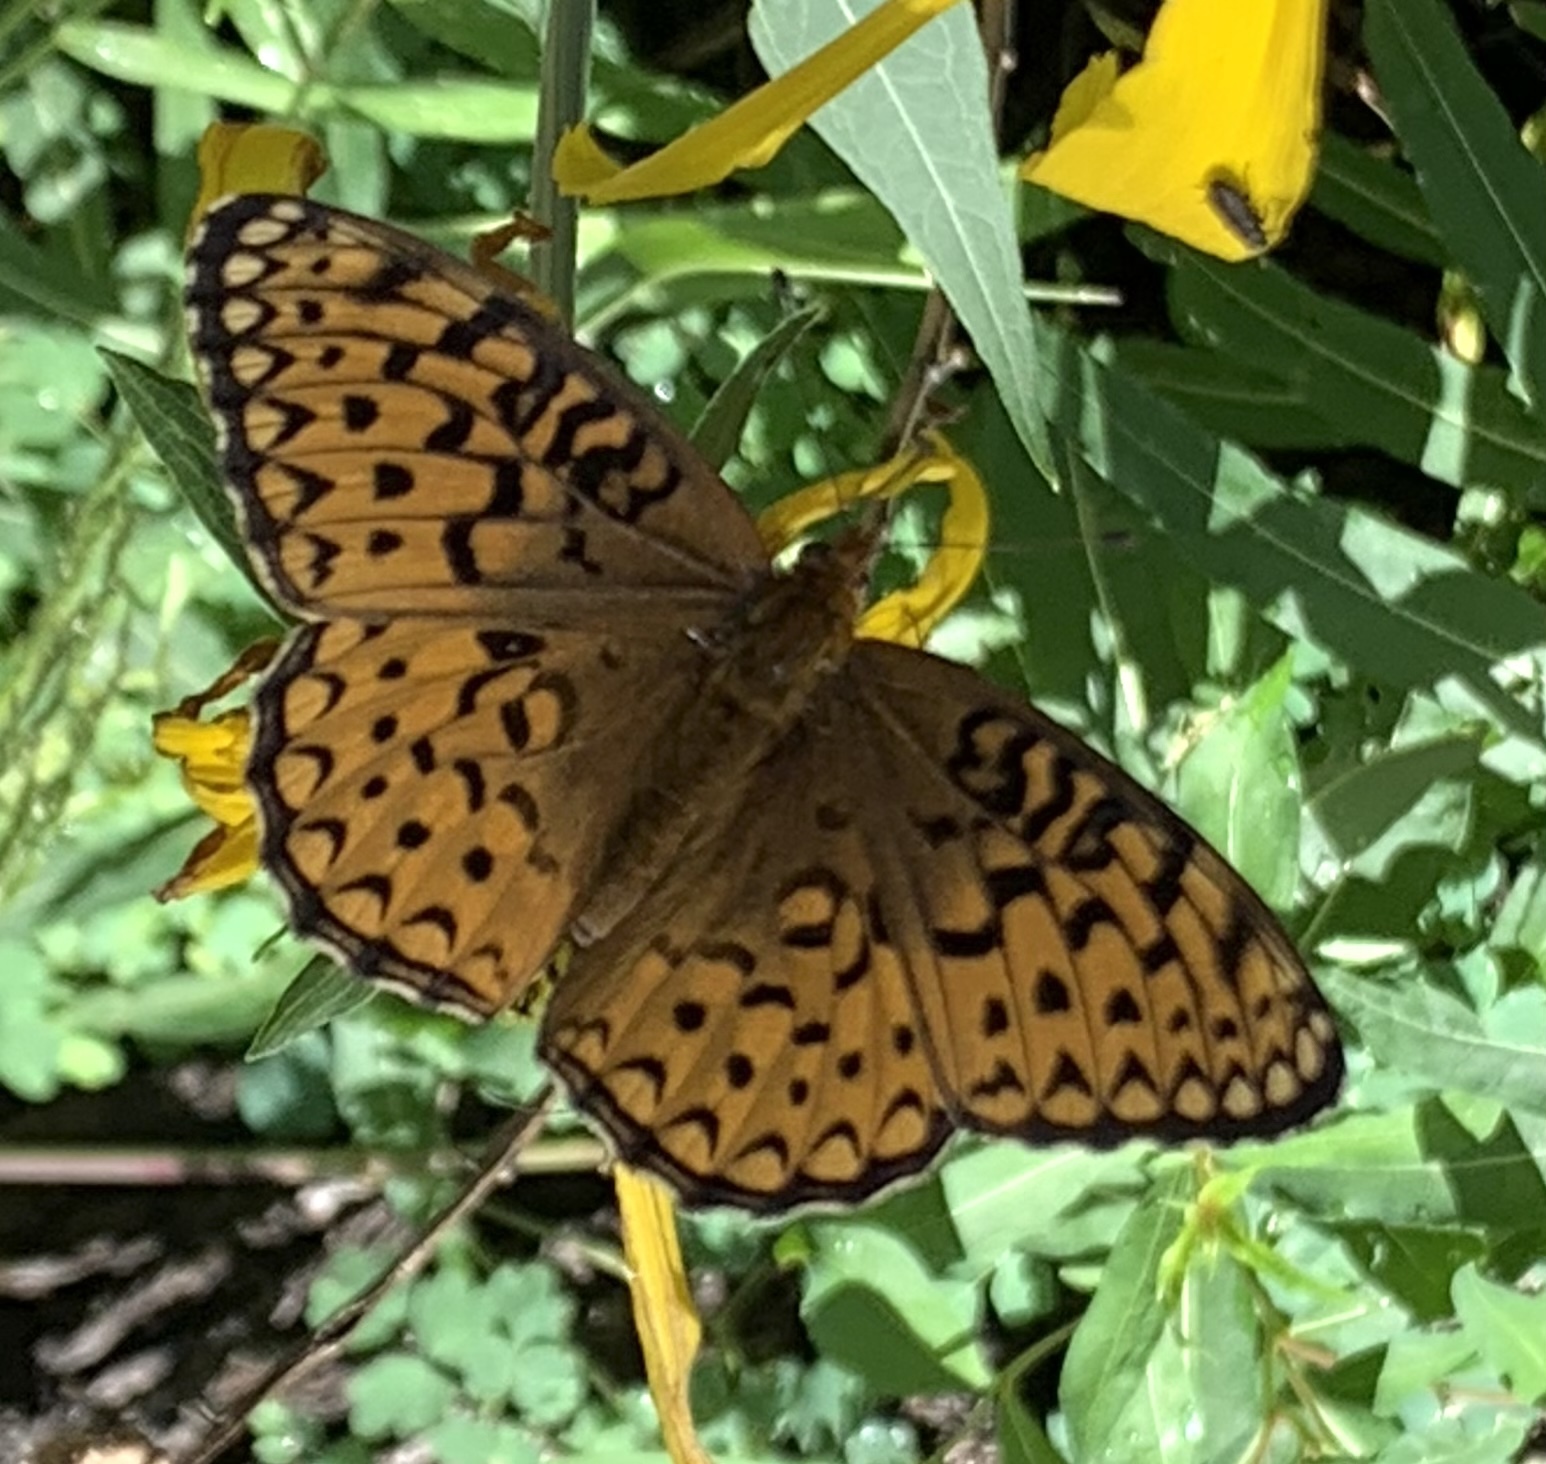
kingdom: Animalia
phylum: Arthropoda
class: Insecta
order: Lepidoptera
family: Nymphalidae
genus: Speyeria
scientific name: Speyeria aphrodite
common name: Aphrodite friitllary
